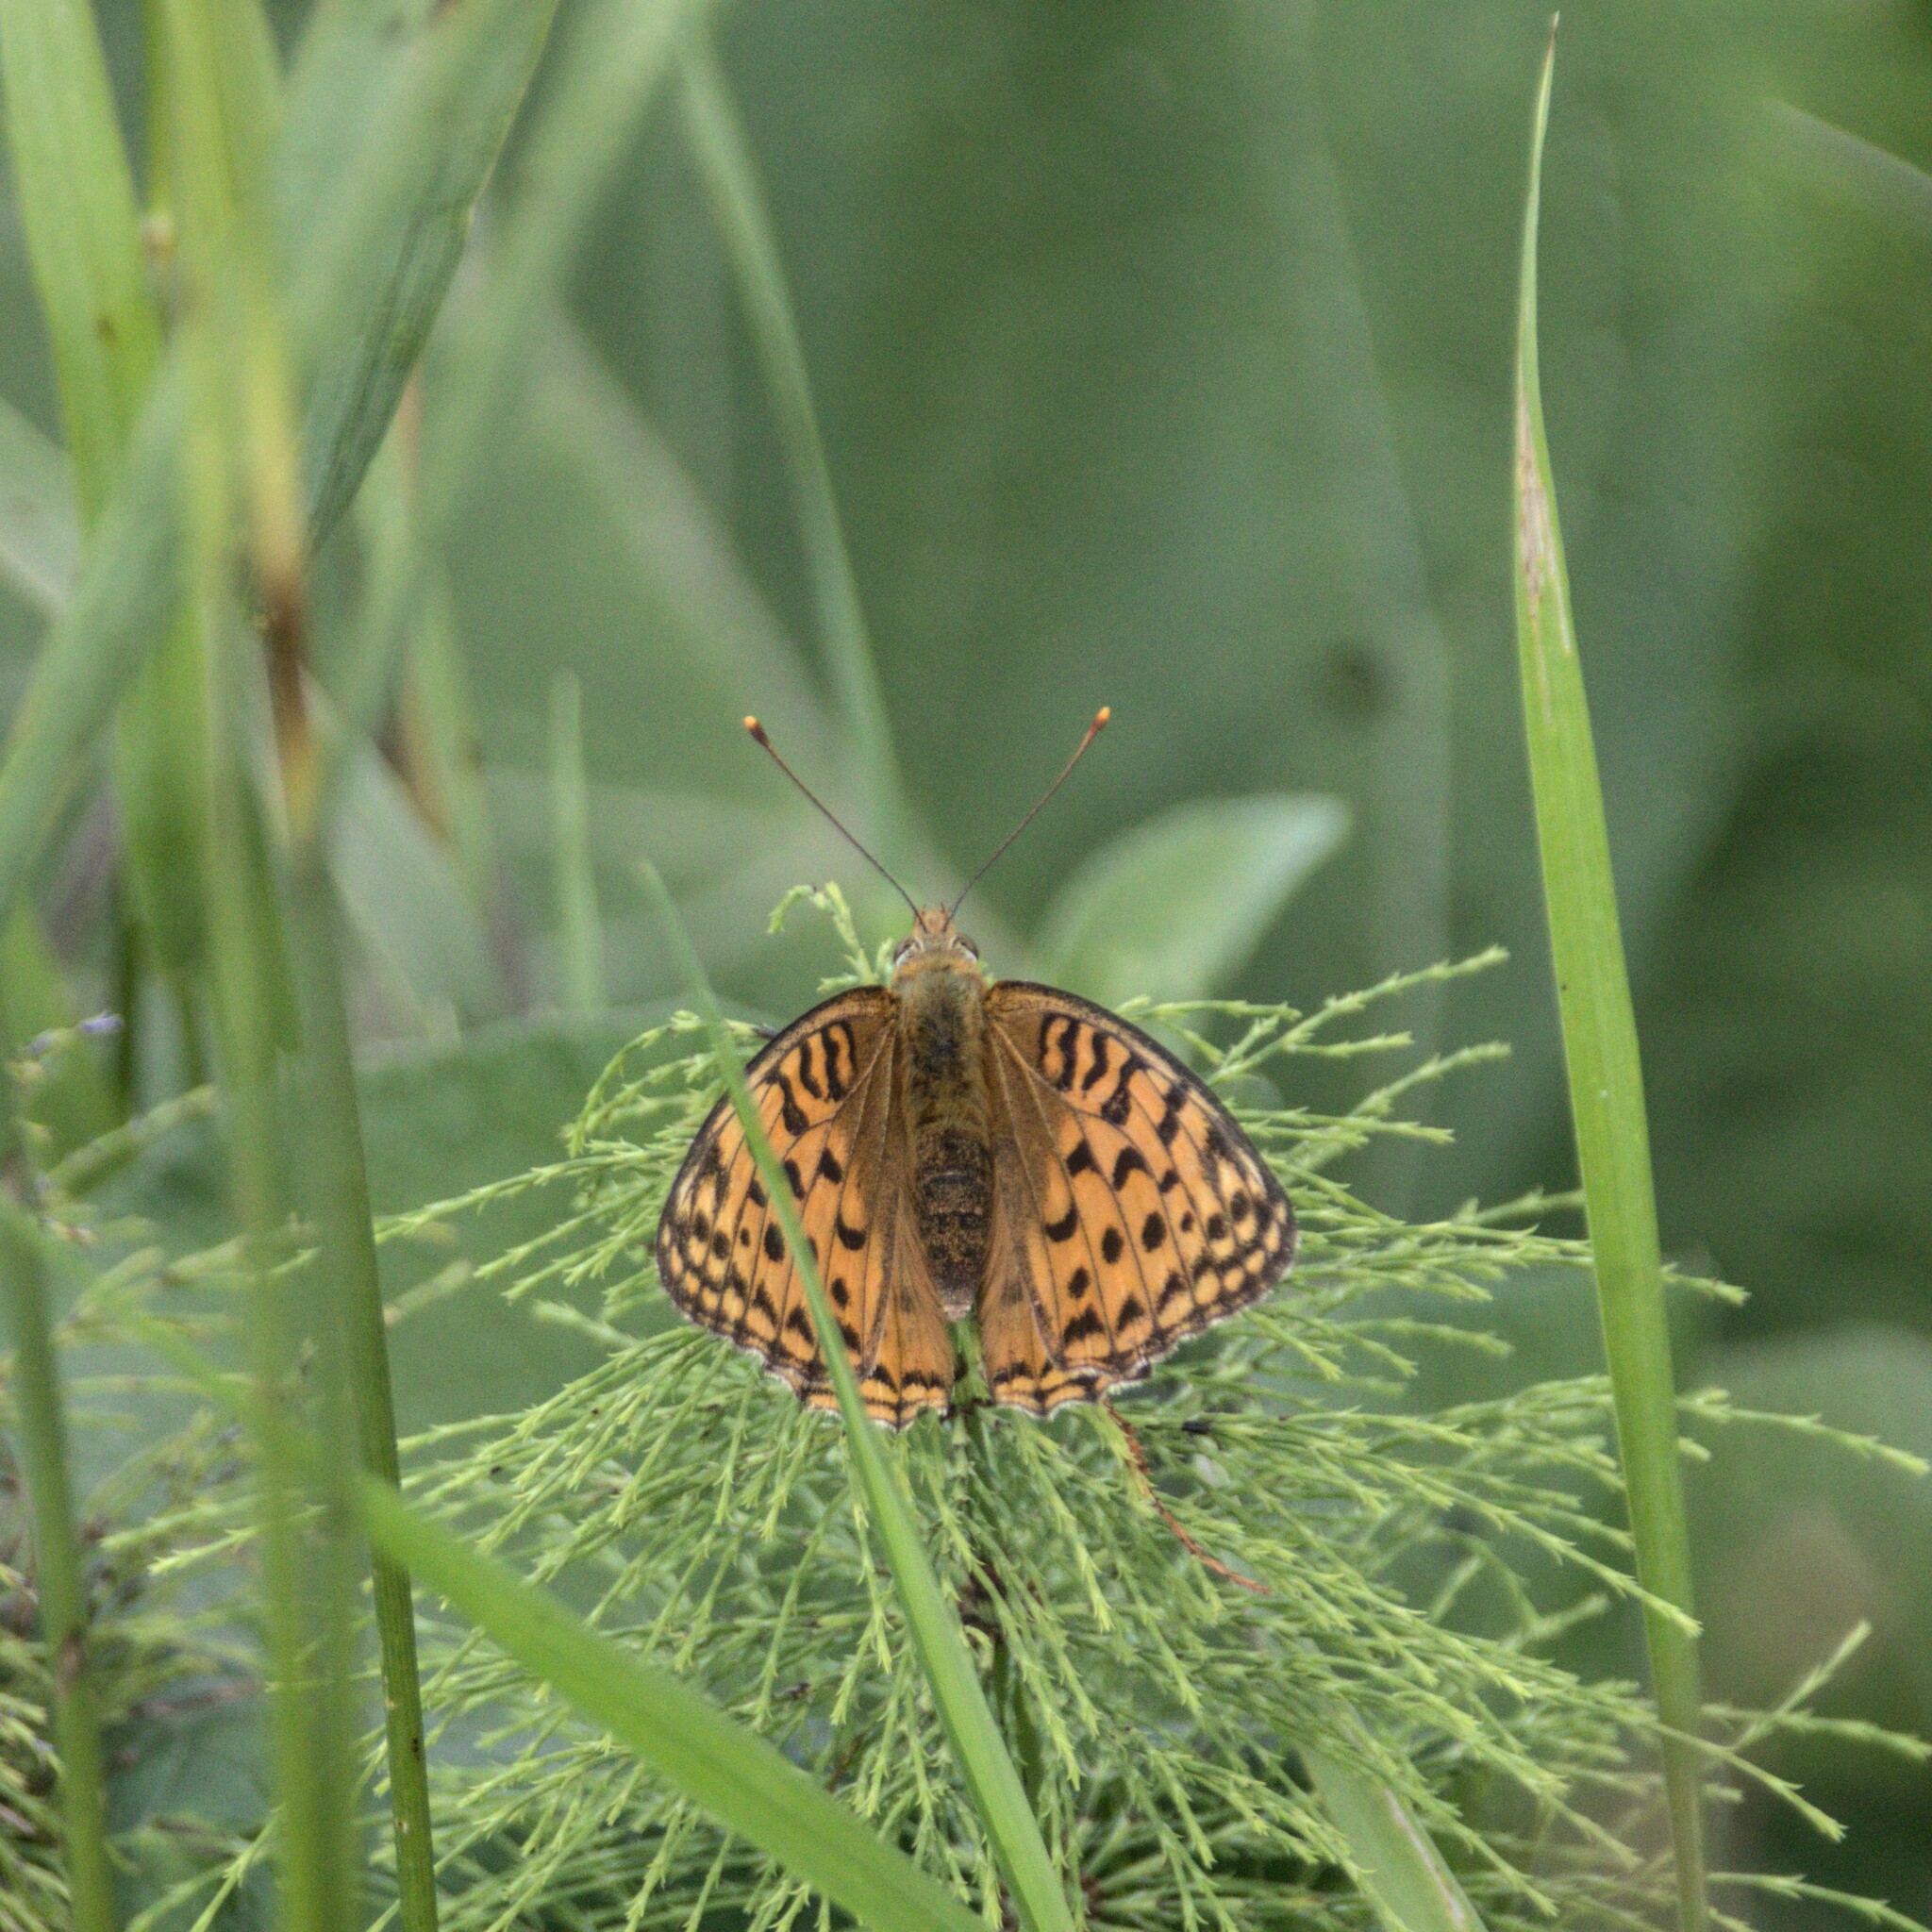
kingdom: Animalia
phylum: Arthropoda
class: Insecta
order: Lepidoptera
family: Nymphalidae
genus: Fabriciana
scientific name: Fabriciana adippe
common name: High brown fritillary
